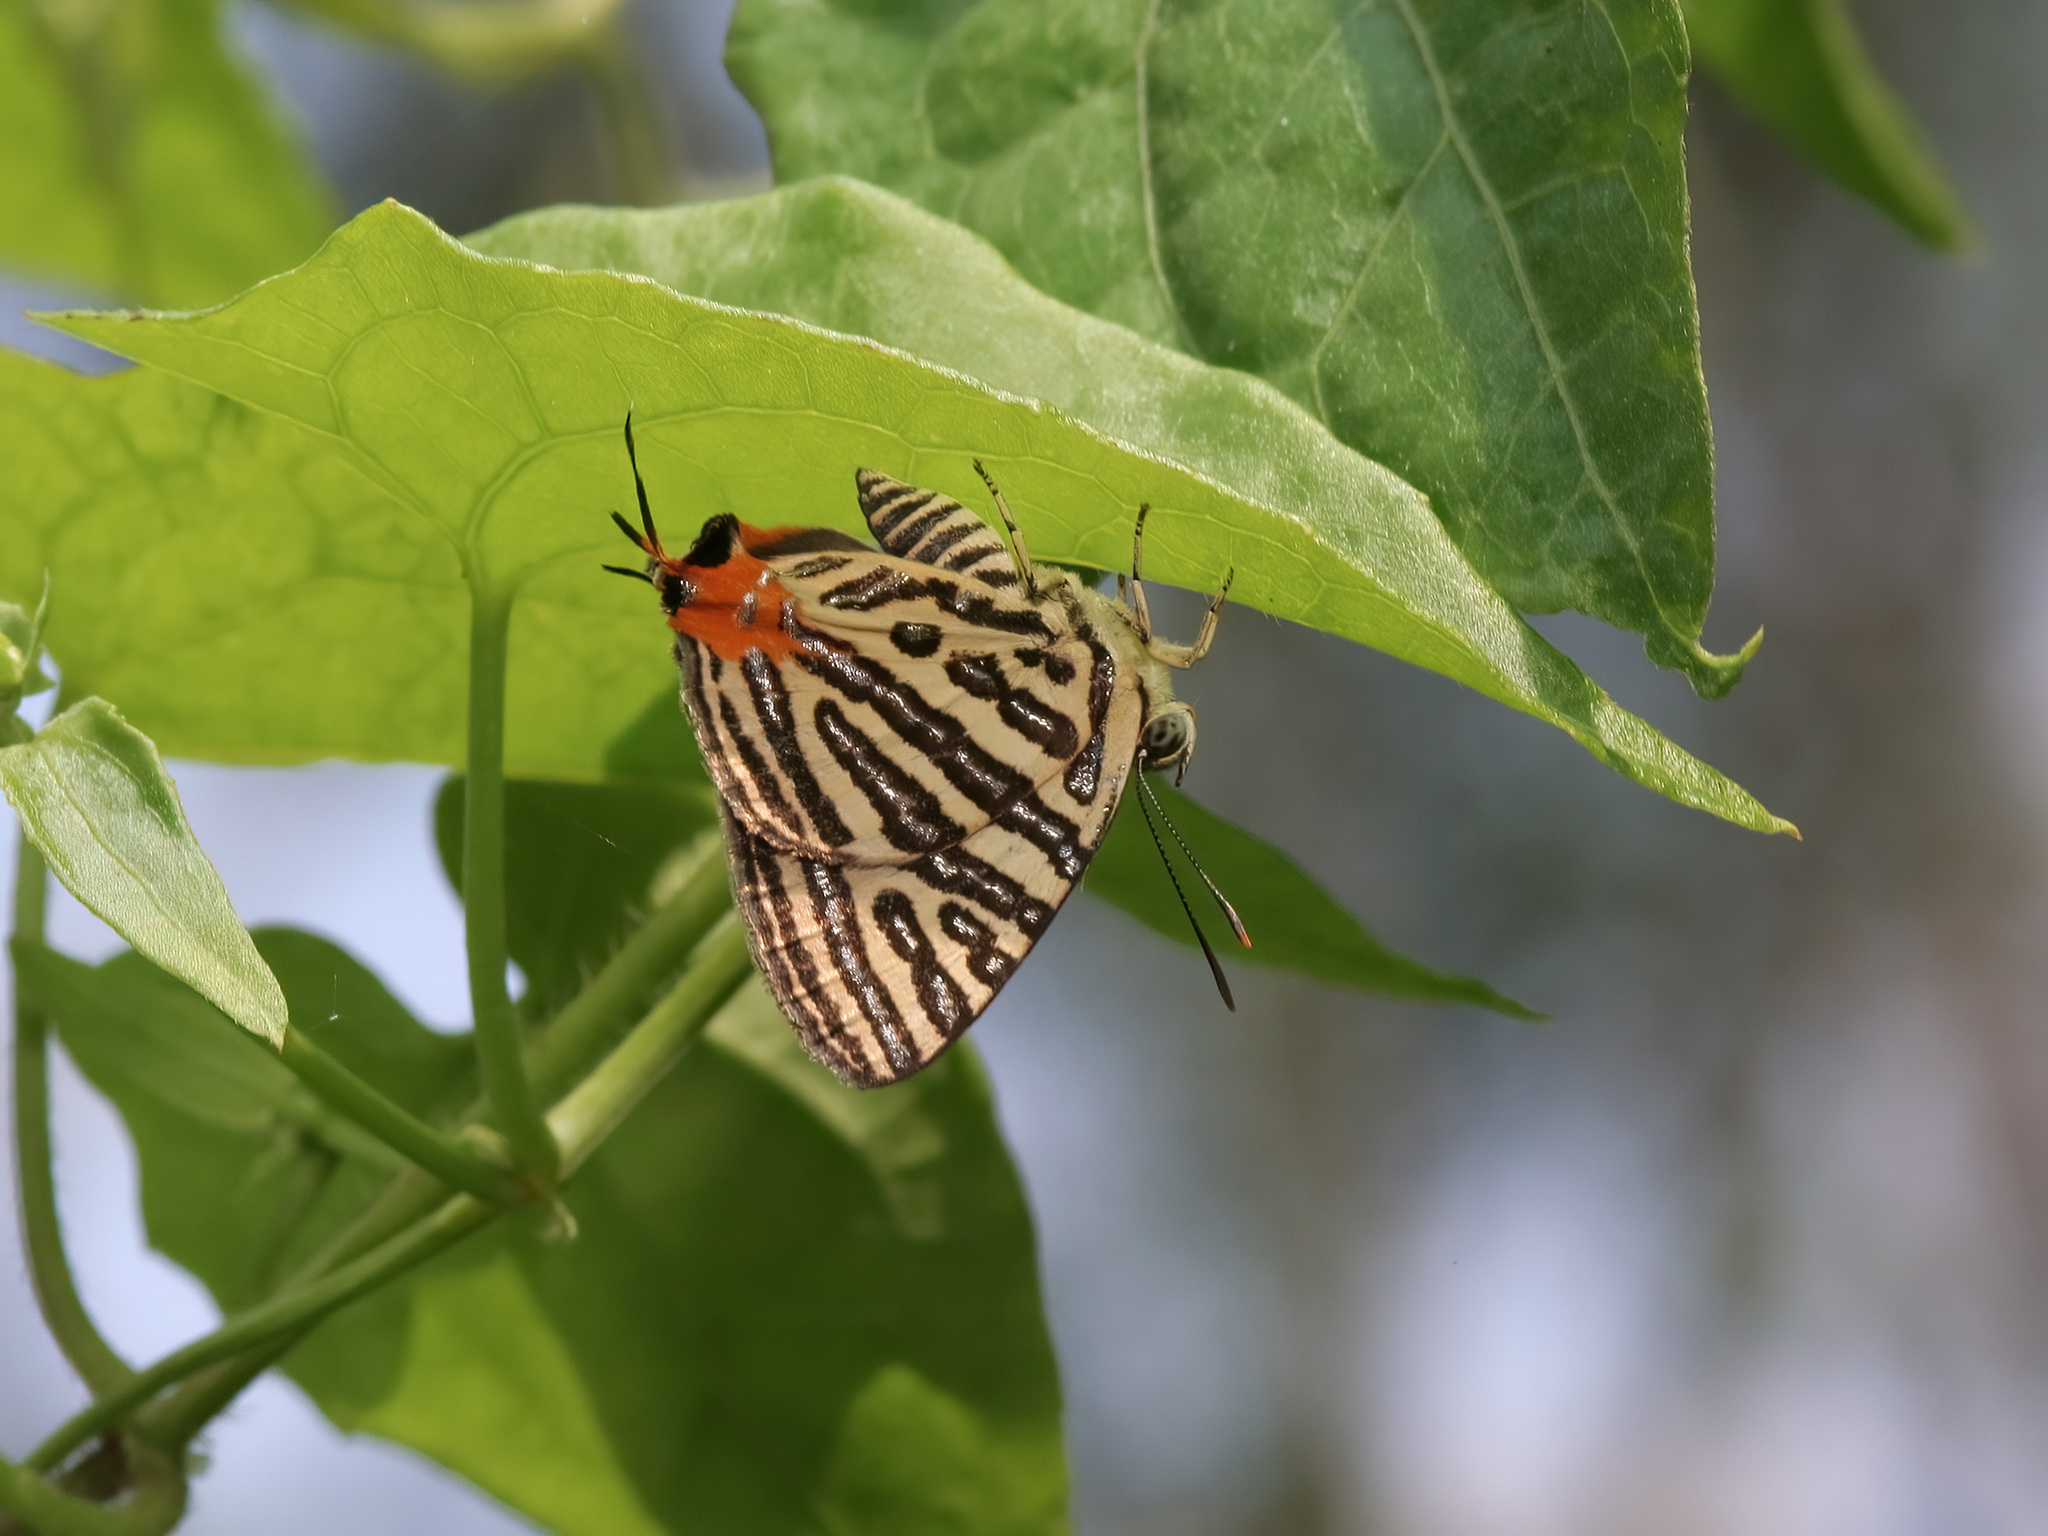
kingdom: Animalia
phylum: Arthropoda
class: Insecta
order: Lepidoptera
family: Lycaenidae
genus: Cigaritis
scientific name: Cigaritis syama
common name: Club silverline
